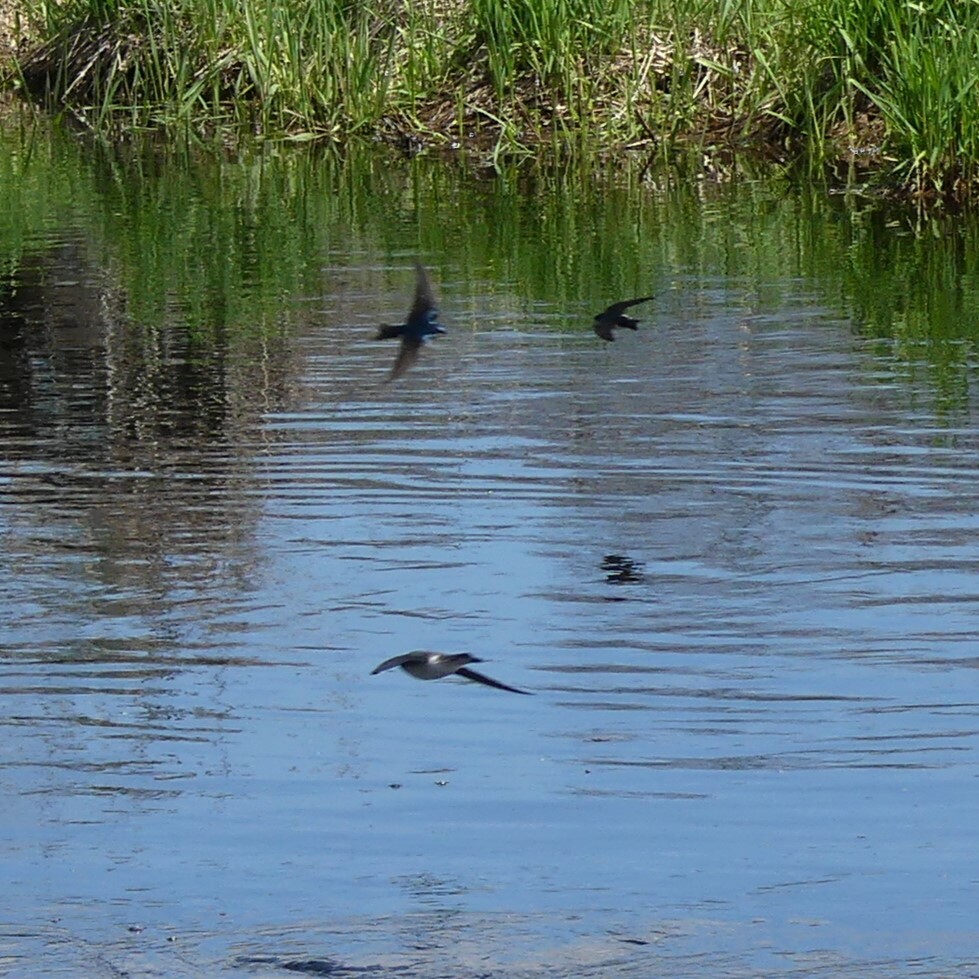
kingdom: Animalia
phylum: Chordata
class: Aves
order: Passeriformes
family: Hirundinidae
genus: Tachycineta
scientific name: Tachycineta bicolor
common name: Tree swallow
